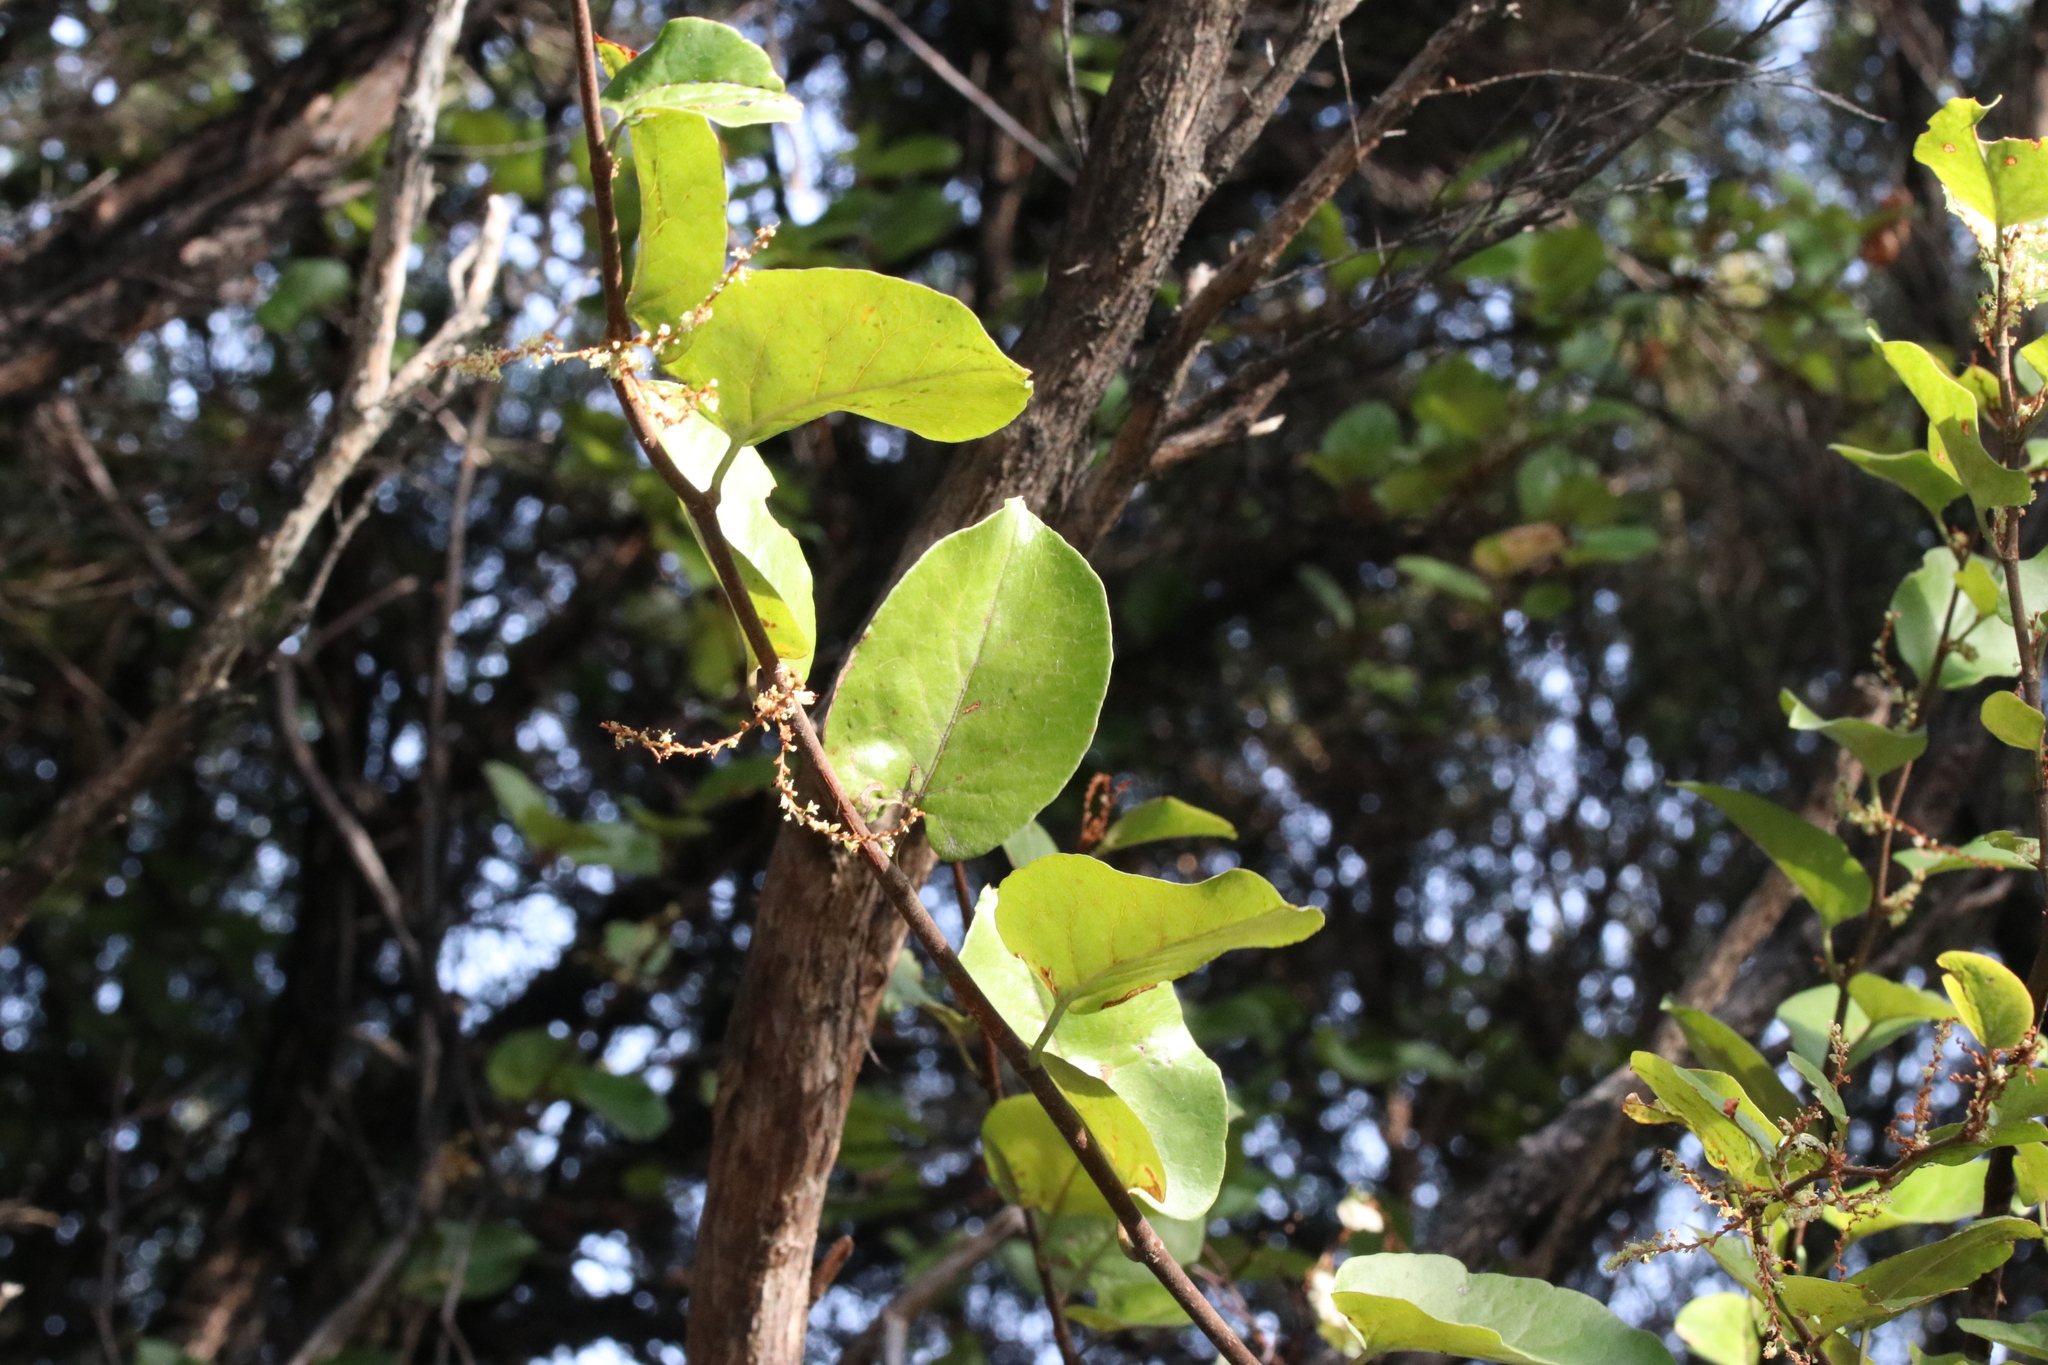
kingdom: Plantae
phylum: Tracheophyta
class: Magnoliopsida
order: Caryophyllales
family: Polygonaceae
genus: Muehlenbeckia
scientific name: Muehlenbeckia australis
